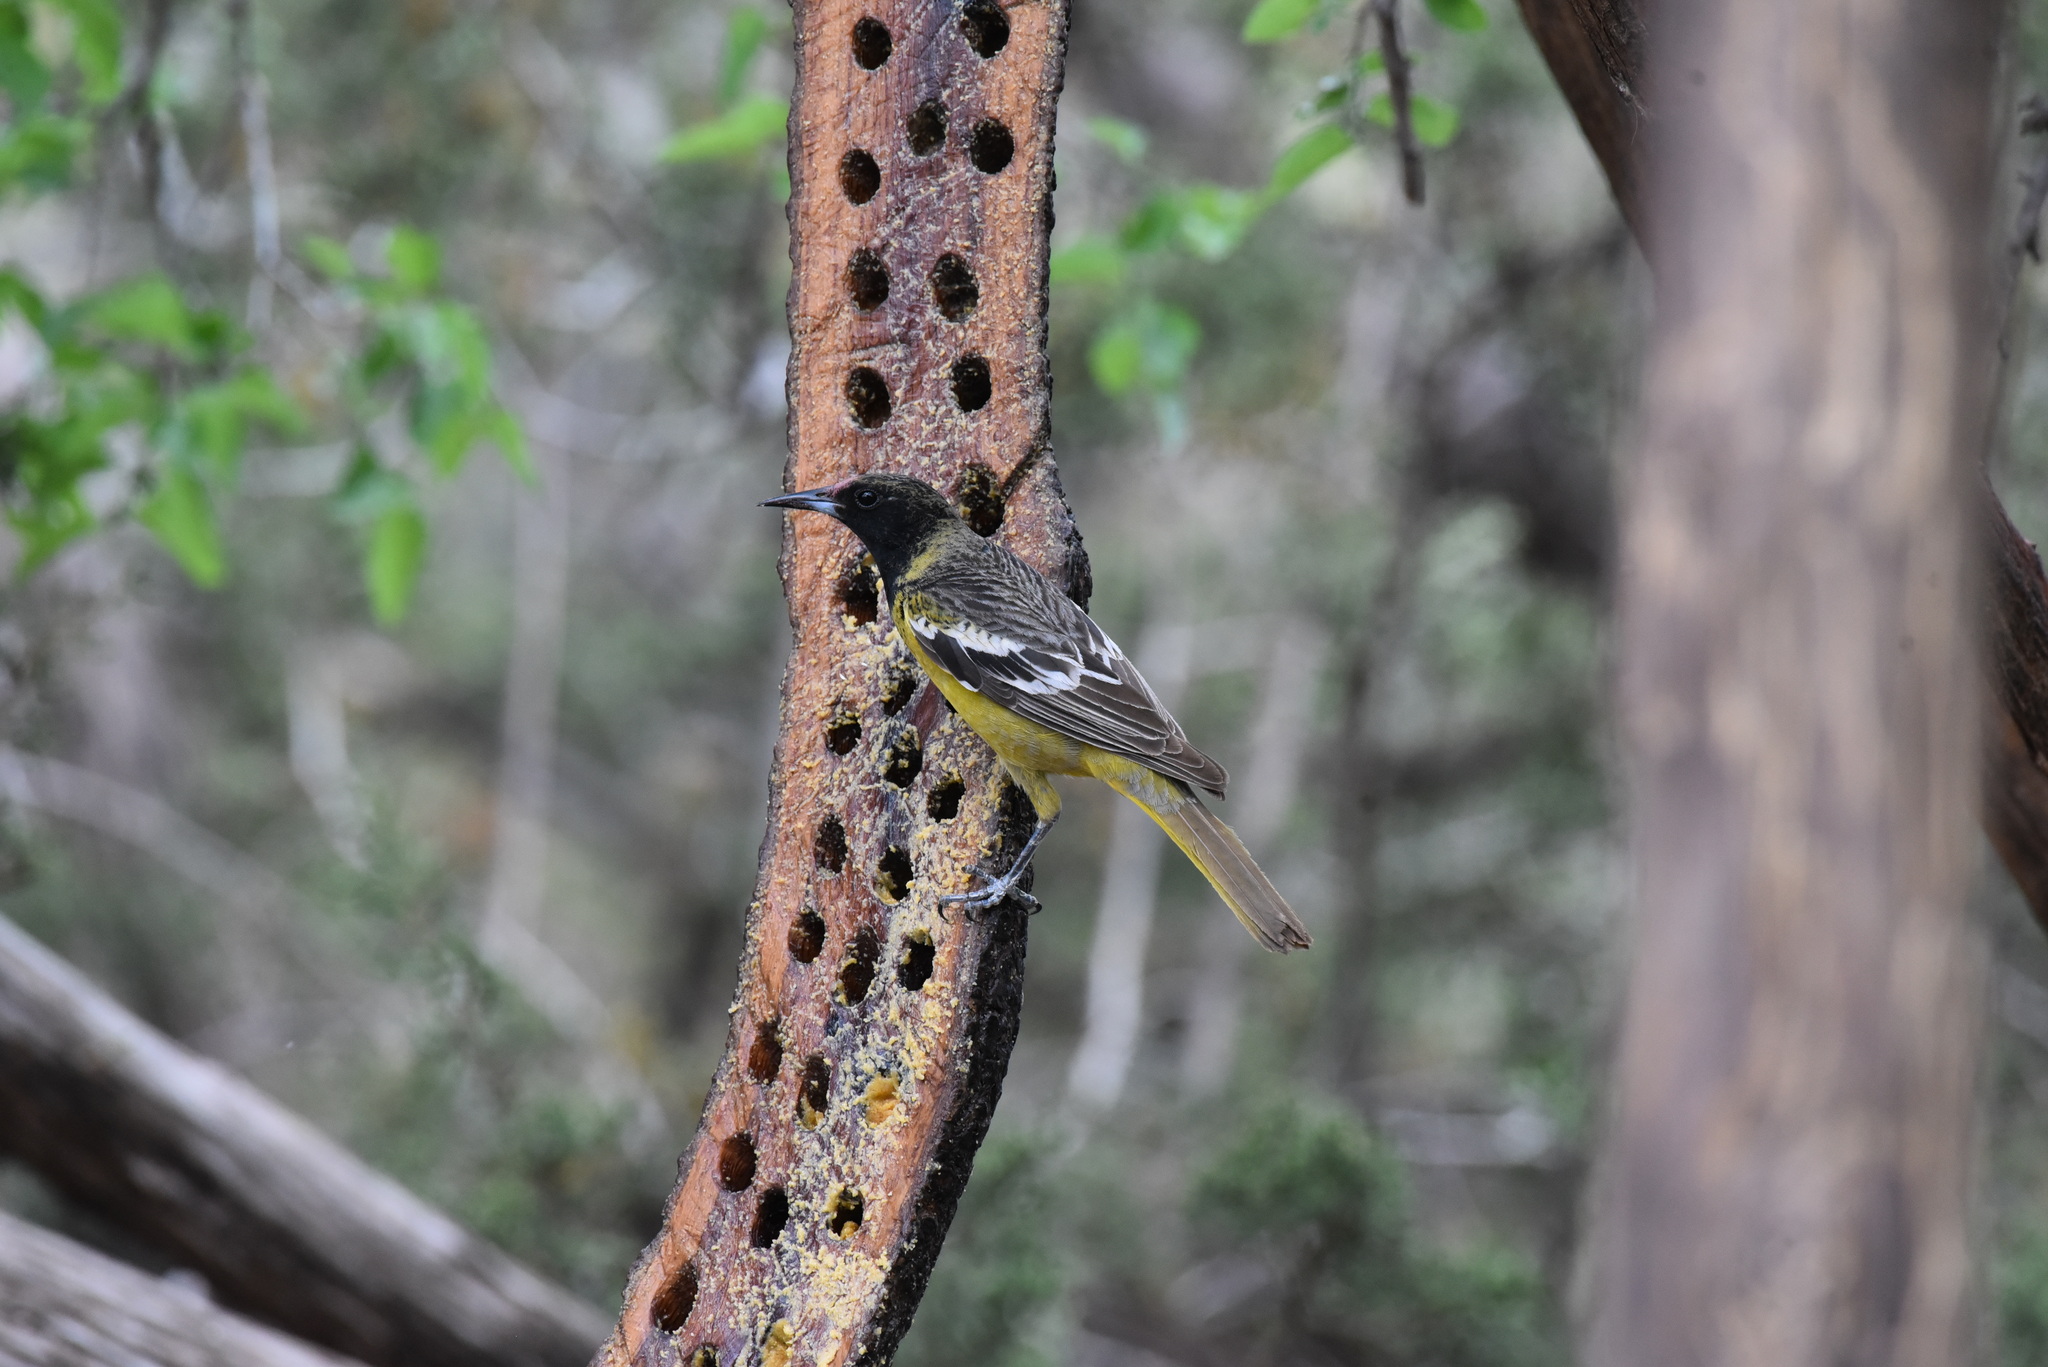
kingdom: Animalia
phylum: Chordata
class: Aves
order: Passeriformes
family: Icteridae
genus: Icterus
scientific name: Icterus parisorum
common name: Scott's oriole
